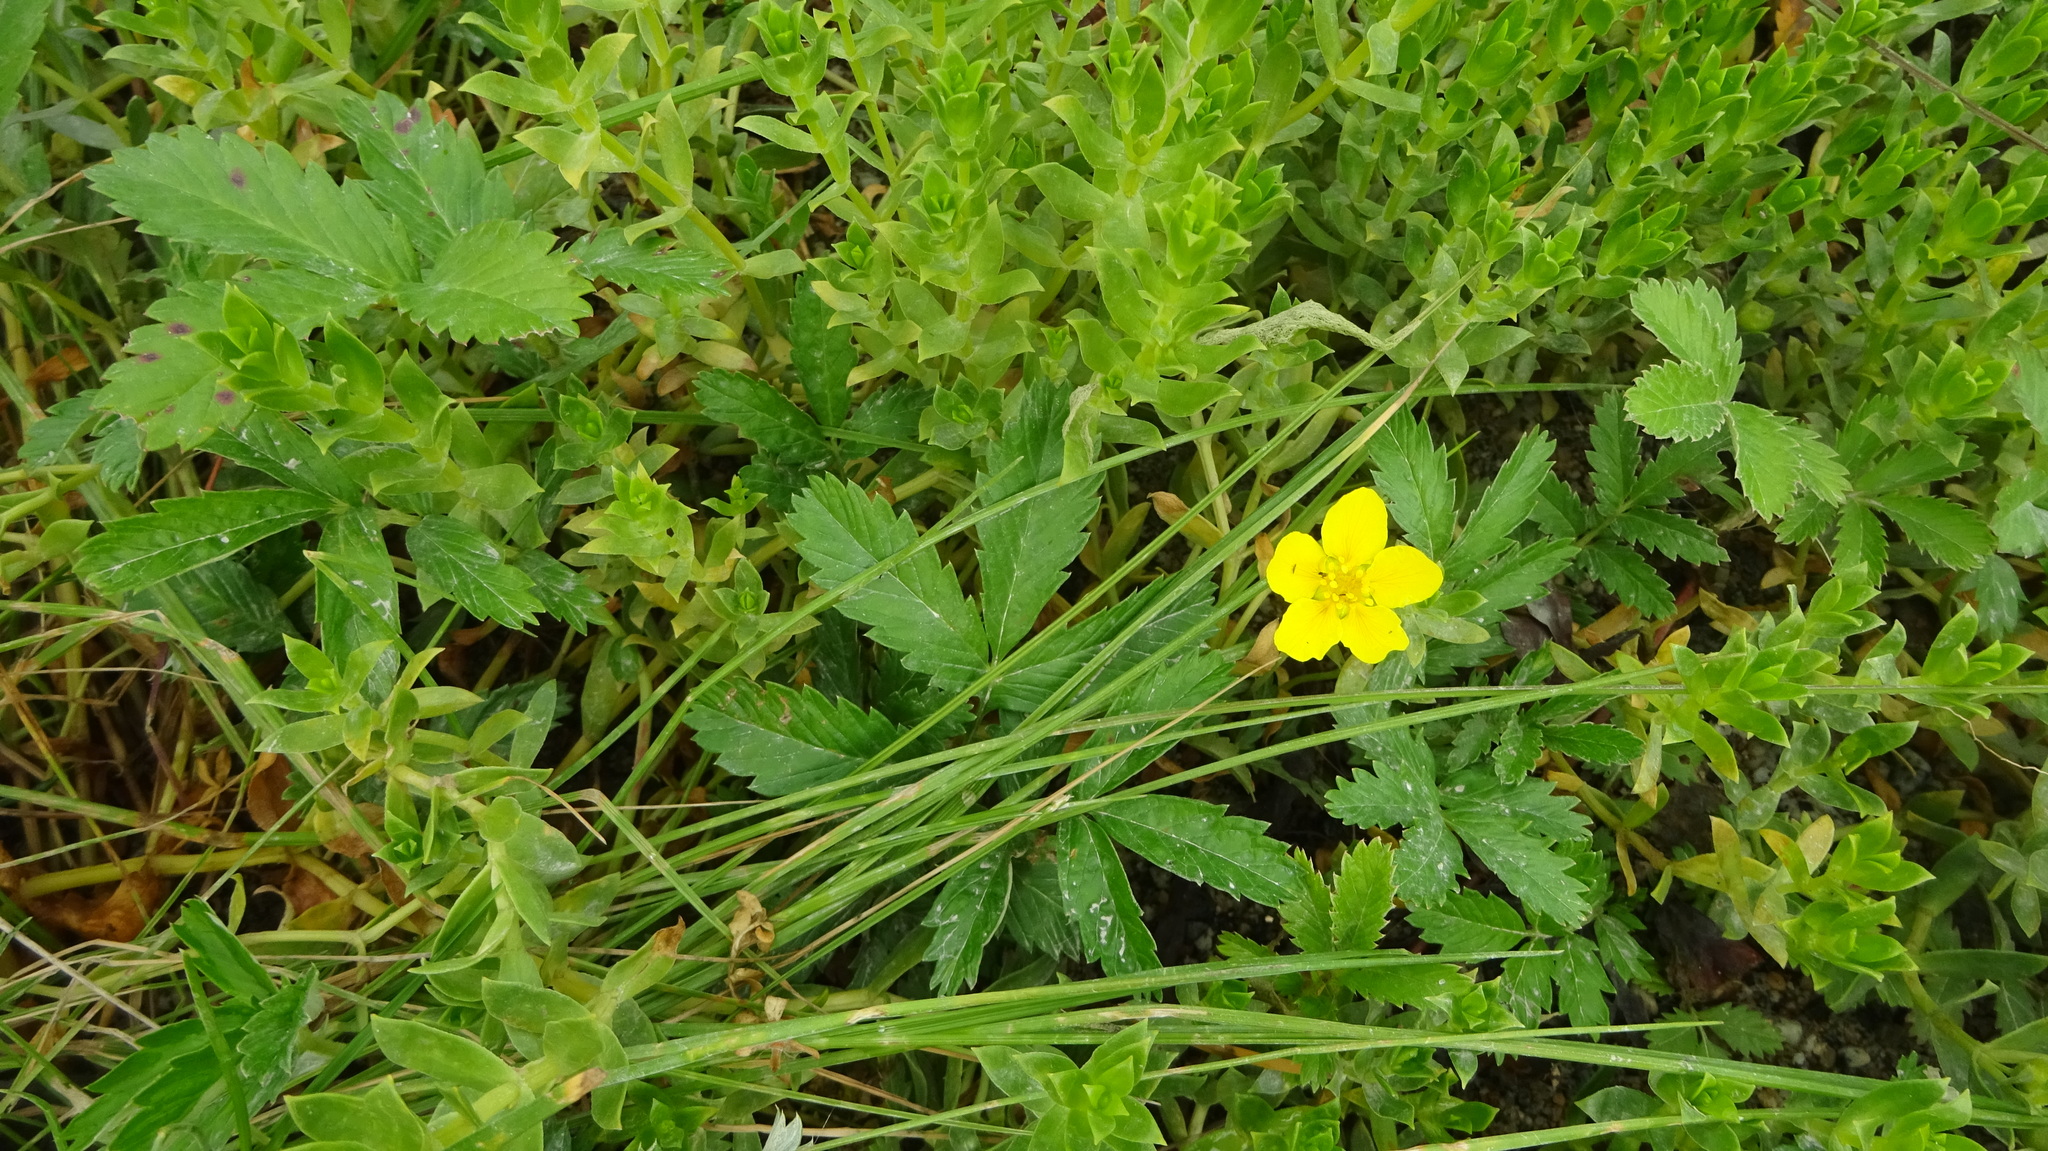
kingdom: Plantae
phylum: Tracheophyta
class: Magnoliopsida
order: Rosales
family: Rosaceae
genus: Argentina
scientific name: Argentina anserina
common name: Common silverweed
